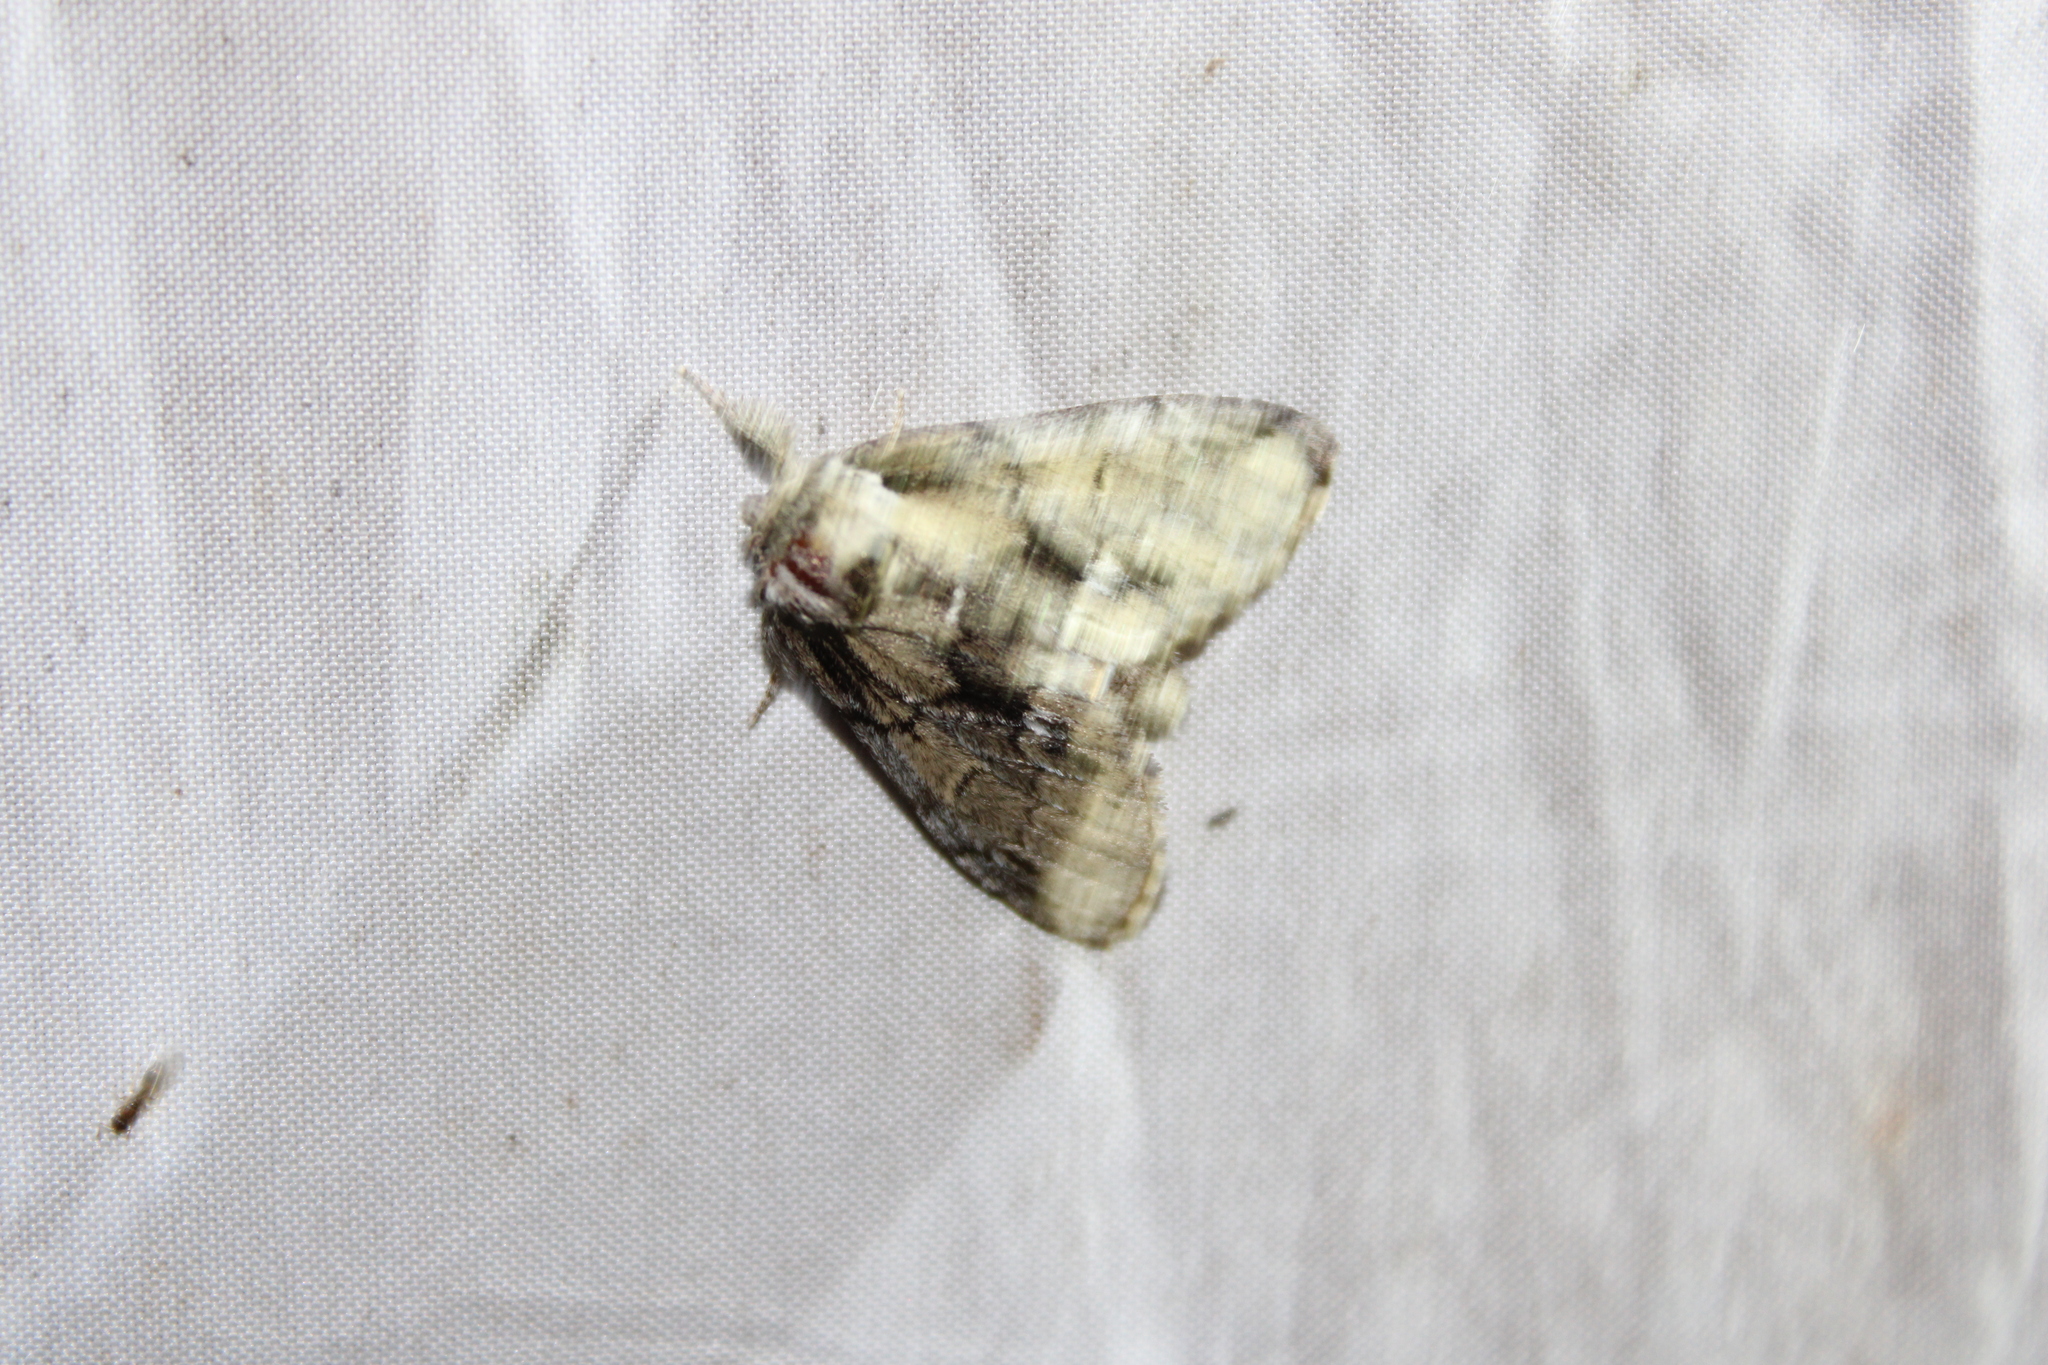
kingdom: Animalia
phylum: Arthropoda
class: Insecta
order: Lepidoptera
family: Notodontidae
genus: Paraeschra
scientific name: Paraeschra georgica
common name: Georgian prominent
